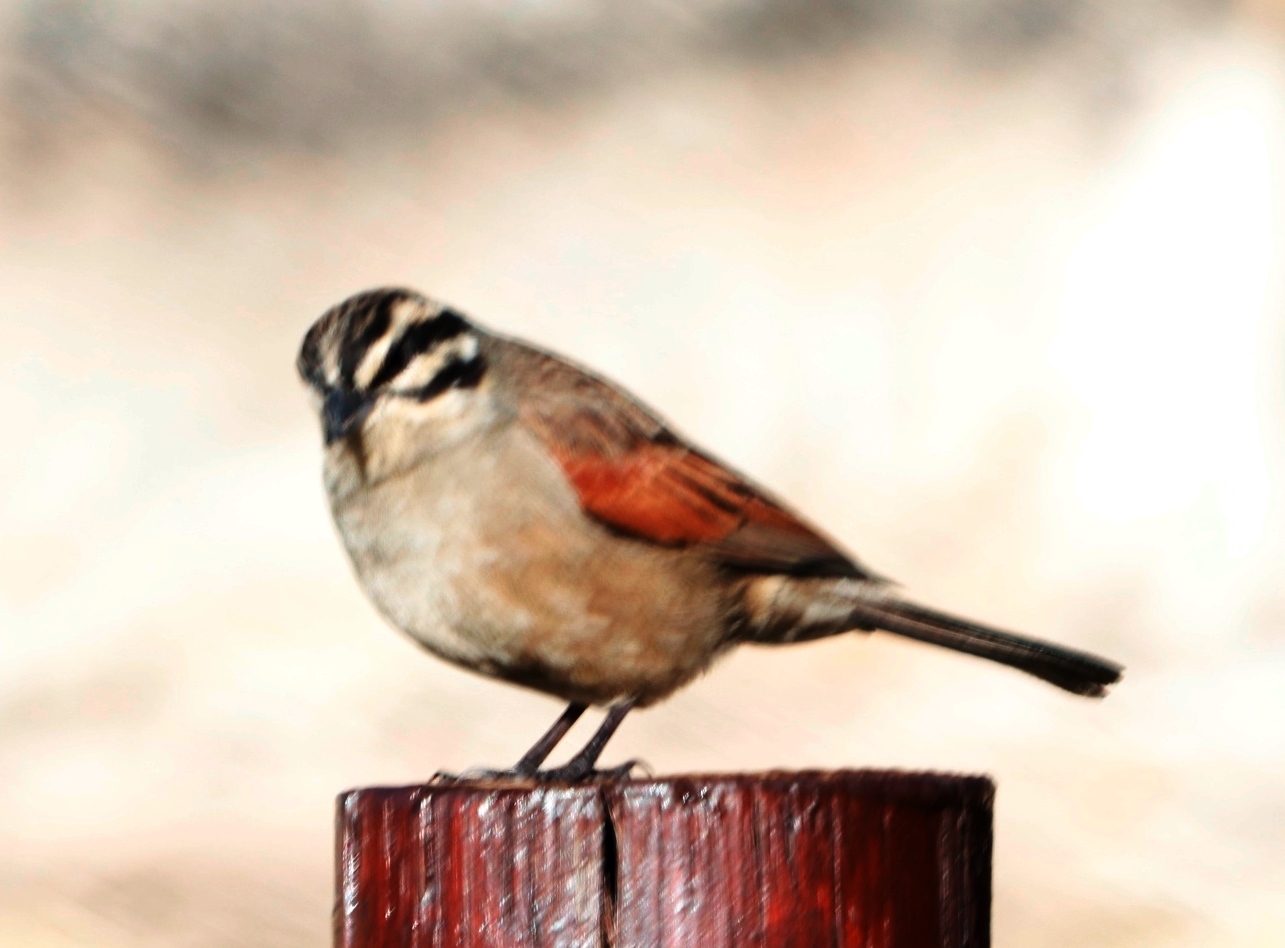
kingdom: Animalia
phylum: Chordata
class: Aves
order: Passeriformes
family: Emberizidae
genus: Emberiza
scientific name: Emberiza capensis
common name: Cape bunting
